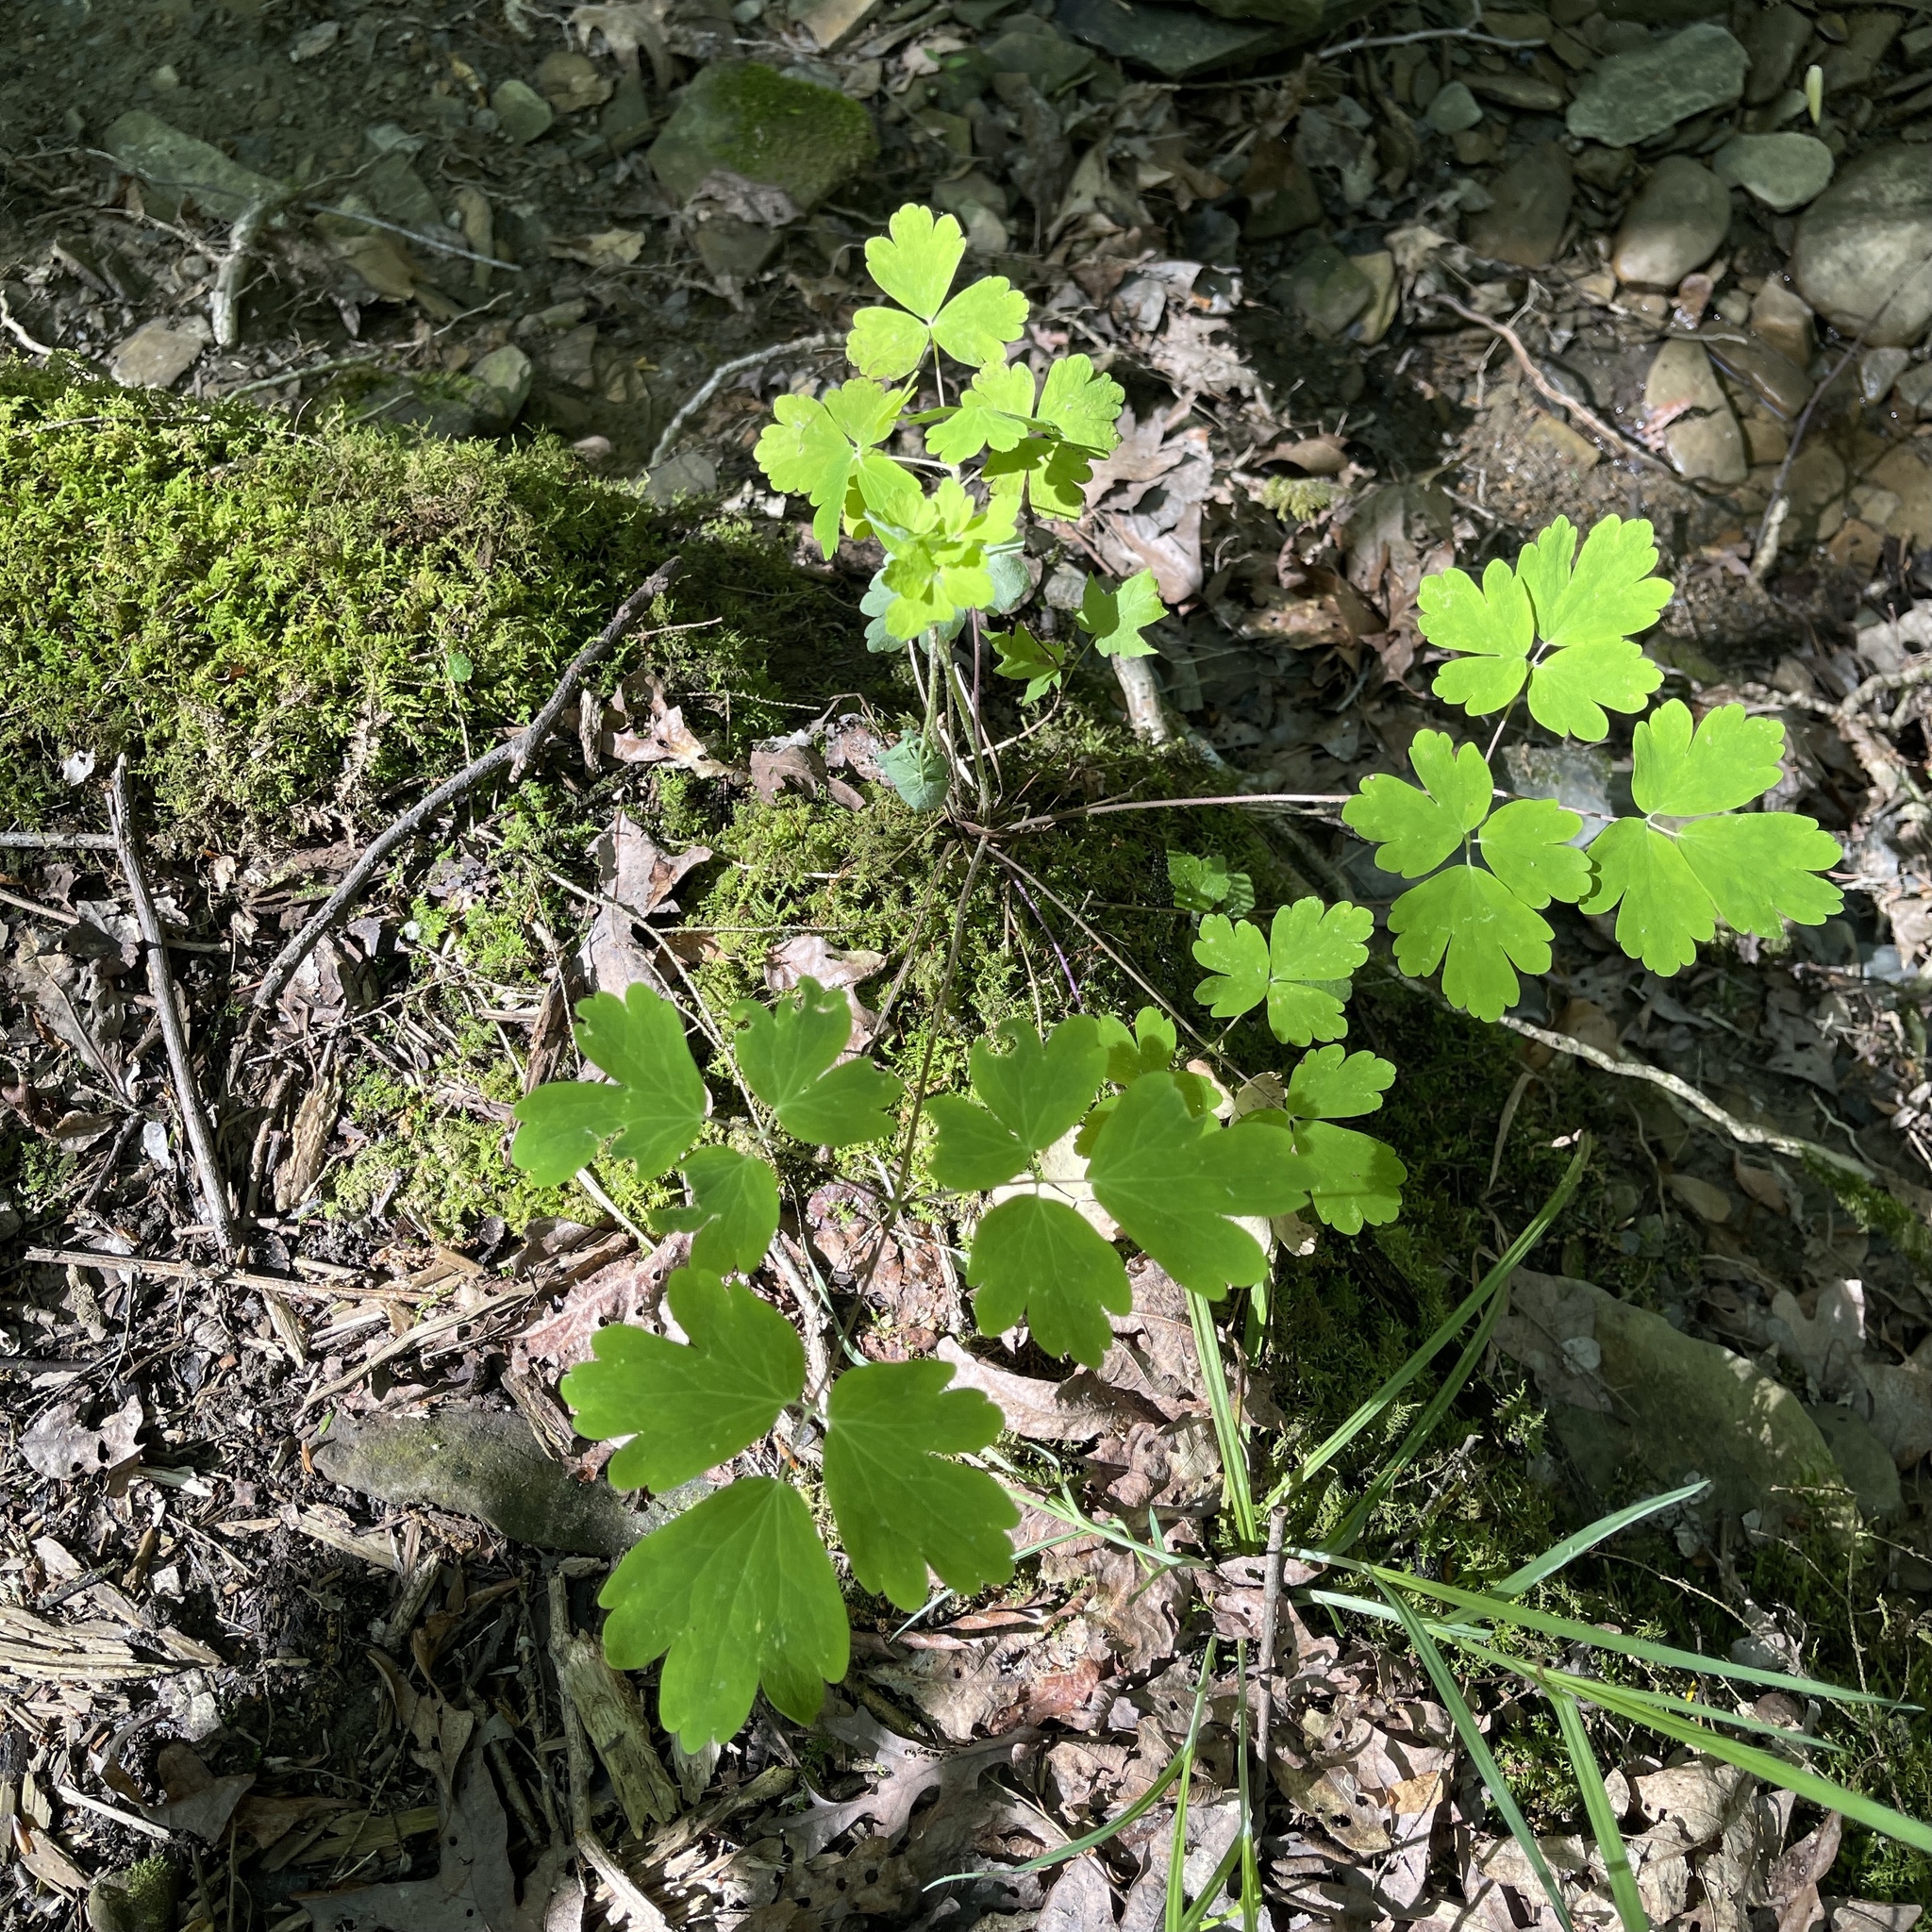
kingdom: Plantae
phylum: Tracheophyta
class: Magnoliopsida
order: Ranunculales
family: Ranunculaceae
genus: Aquilegia
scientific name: Aquilegia canadensis
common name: American columbine
